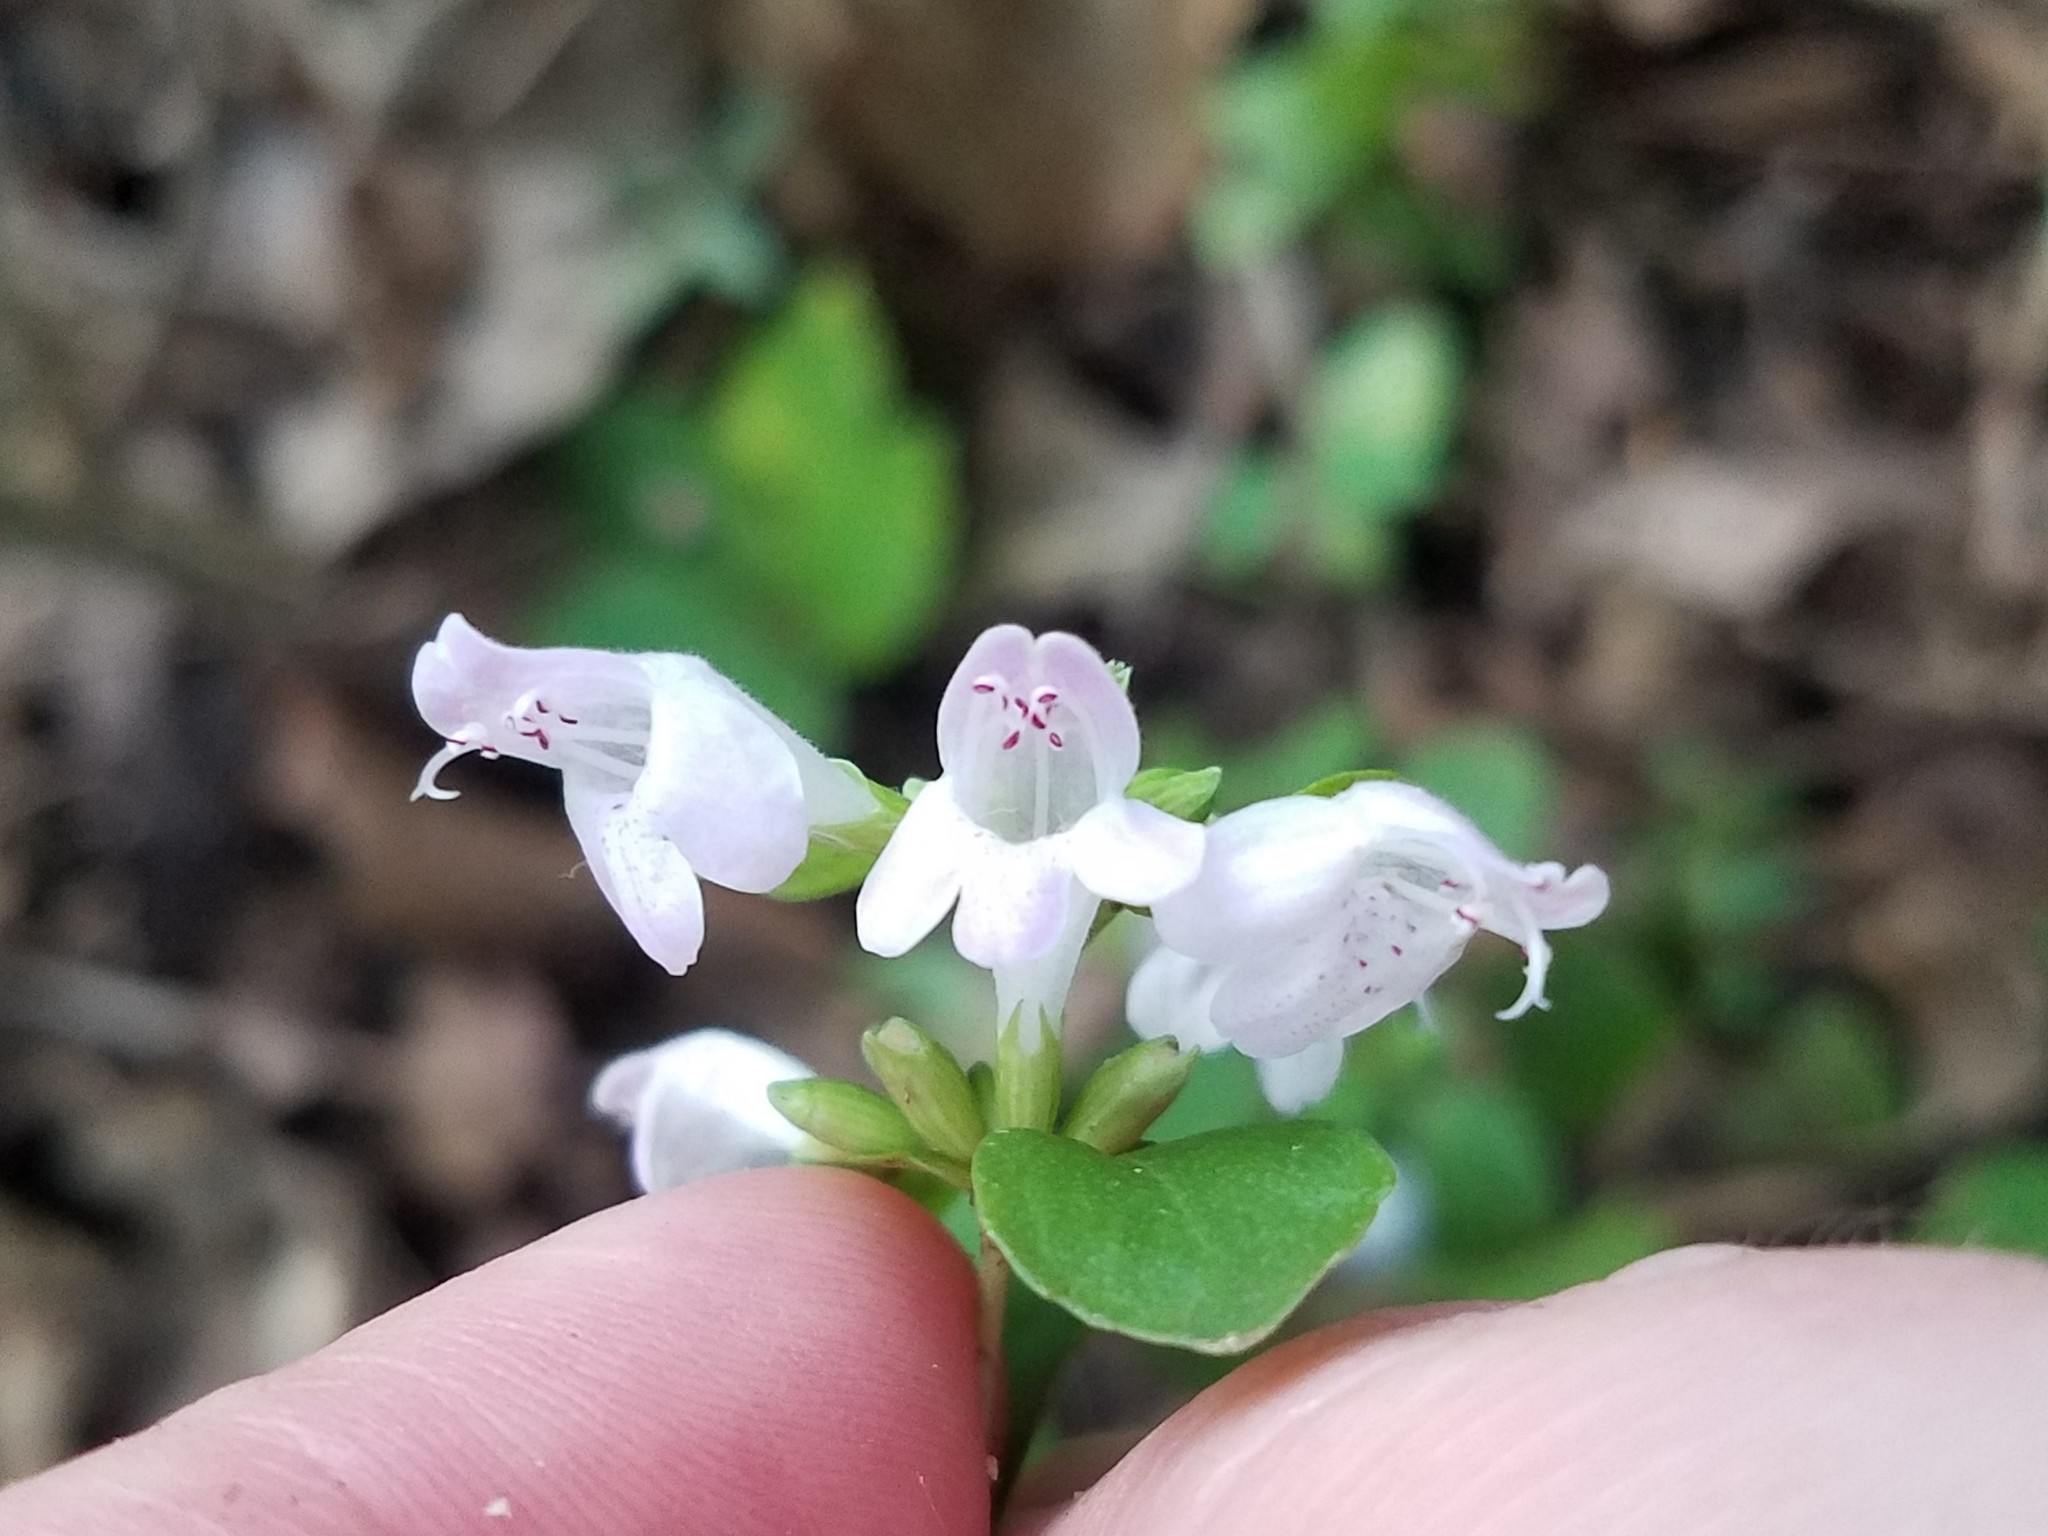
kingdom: Plantae
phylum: Tracheophyta
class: Magnoliopsida
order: Lamiales
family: Lamiaceae
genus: Clinopodium
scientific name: Clinopodium carolinianum
